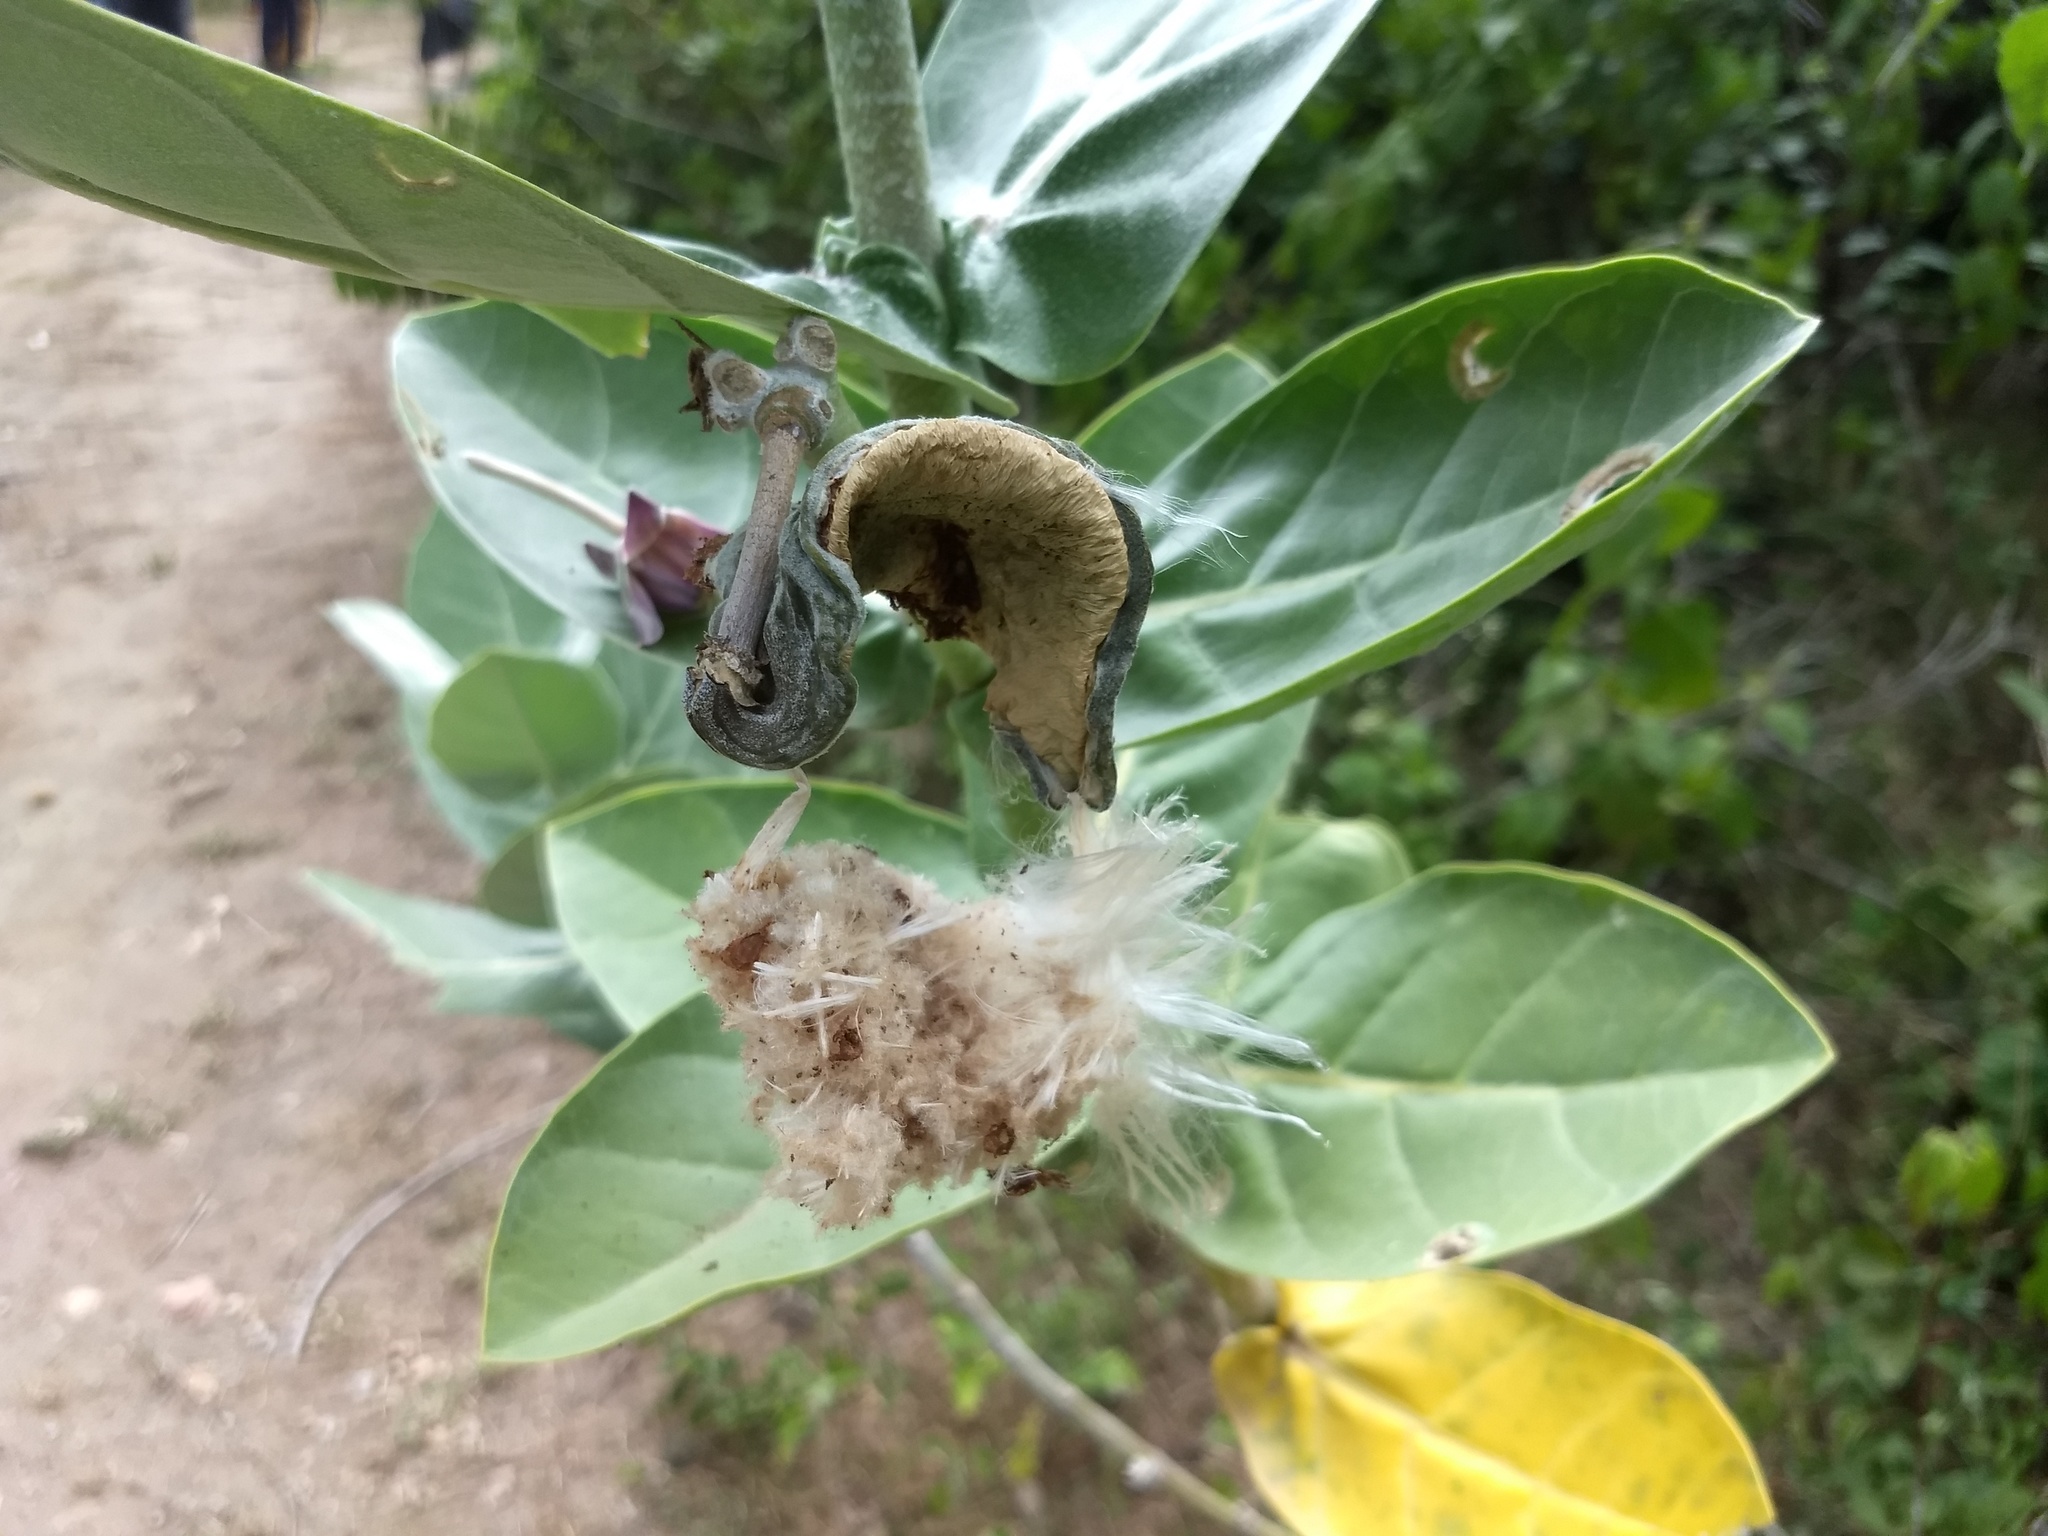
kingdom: Plantae
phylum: Tracheophyta
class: Magnoliopsida
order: Gentianales
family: Apocynaceae
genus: Calotropis
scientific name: Calotropis gigantea
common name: Crown flower
